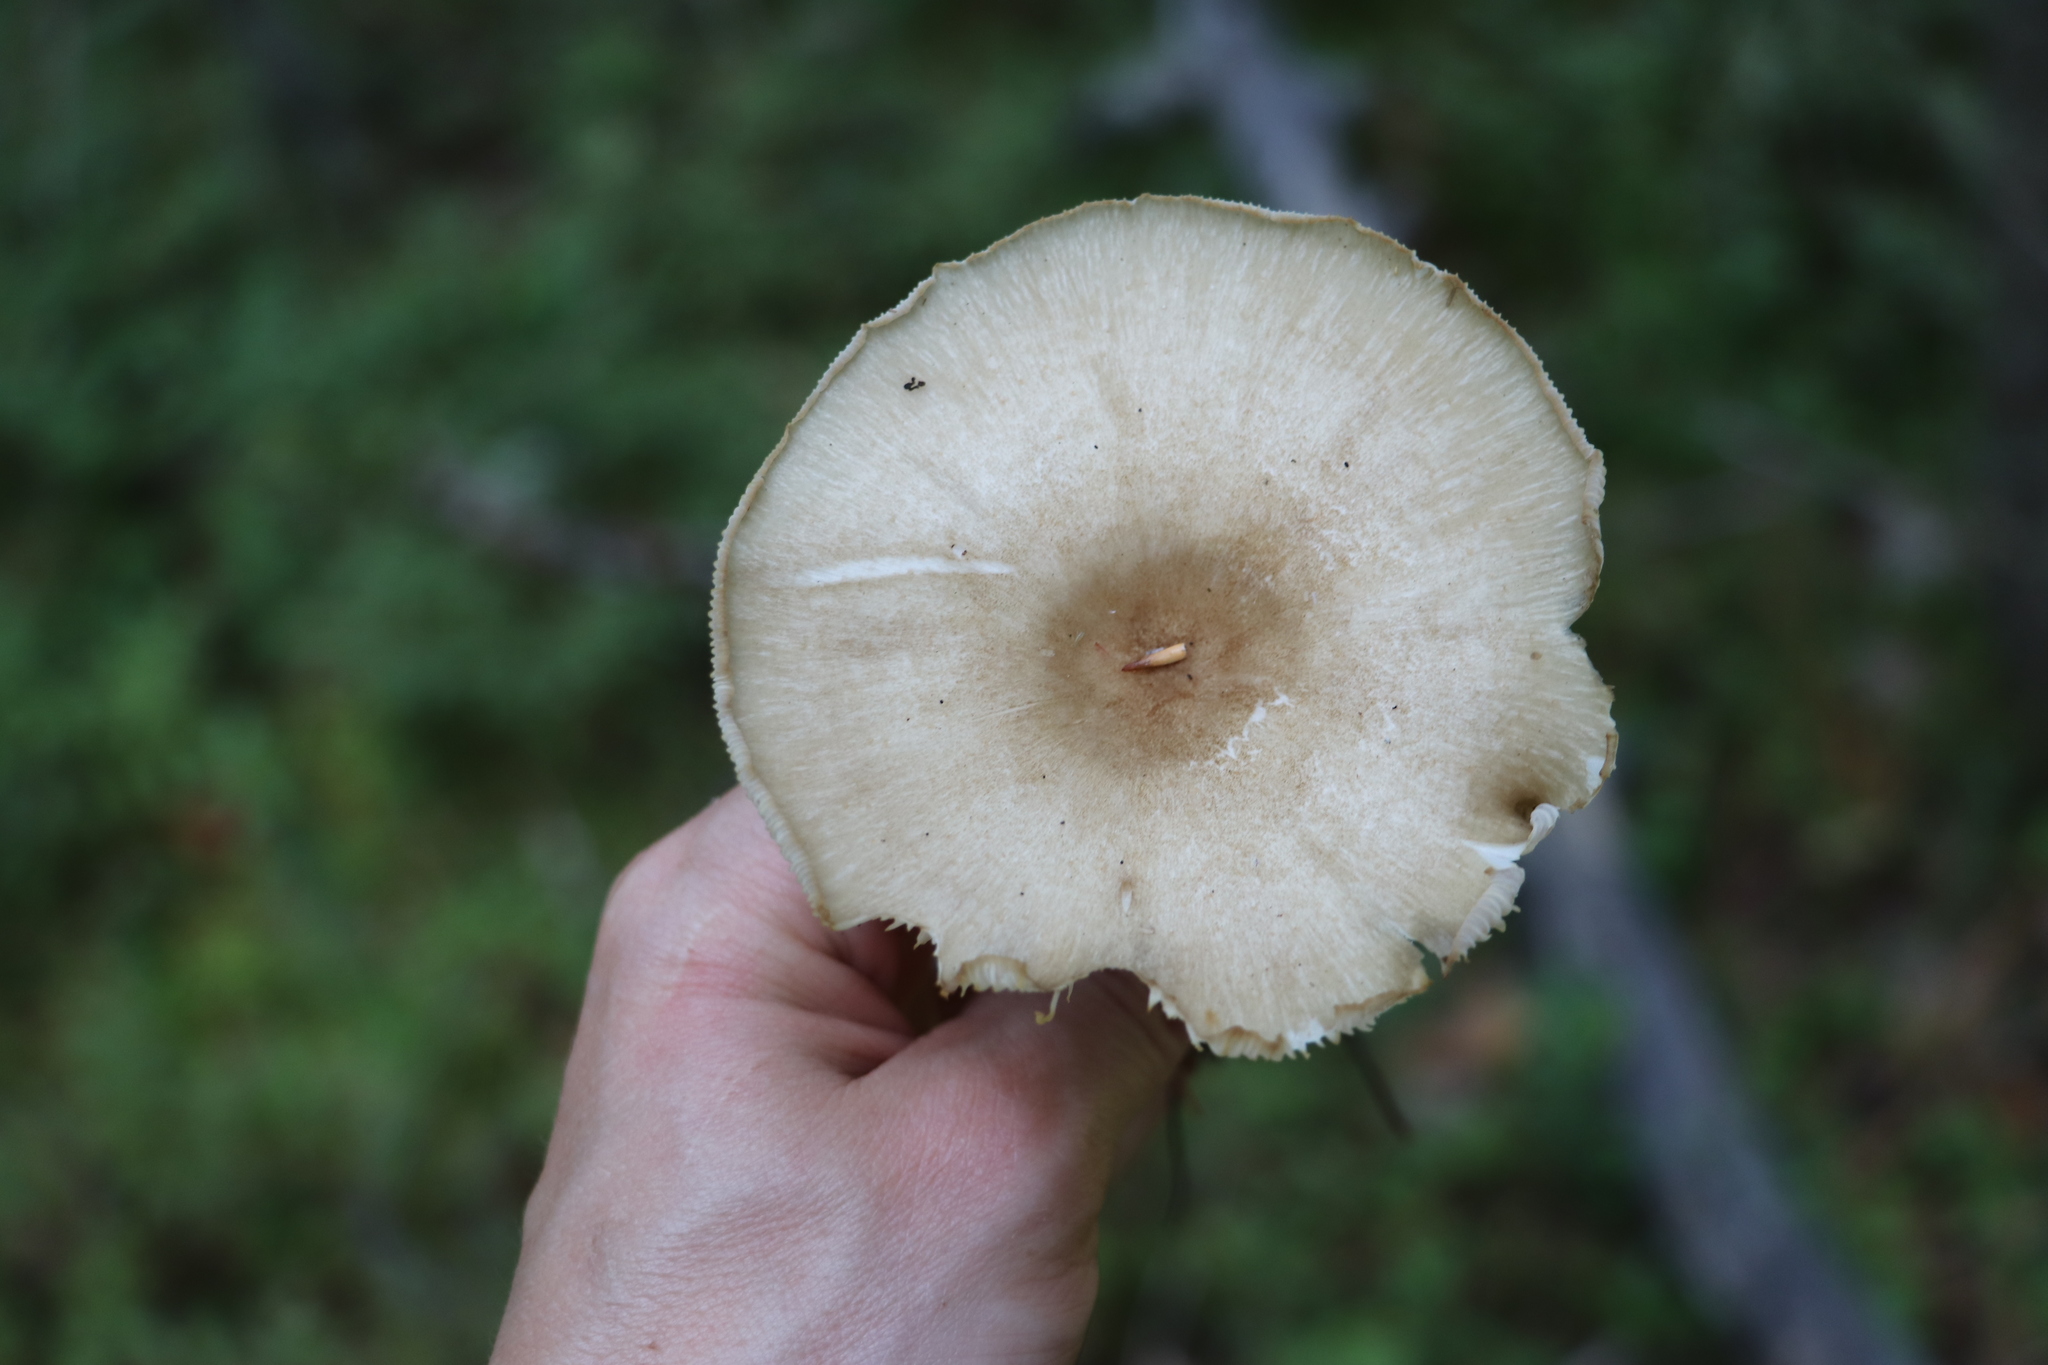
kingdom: Fungi
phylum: Basidiomycota
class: Agaricomycetes
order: Agaricales
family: Tricholomataceae
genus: Megacollybia
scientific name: Megacollybia platyphylla
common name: Whitelaced shank
